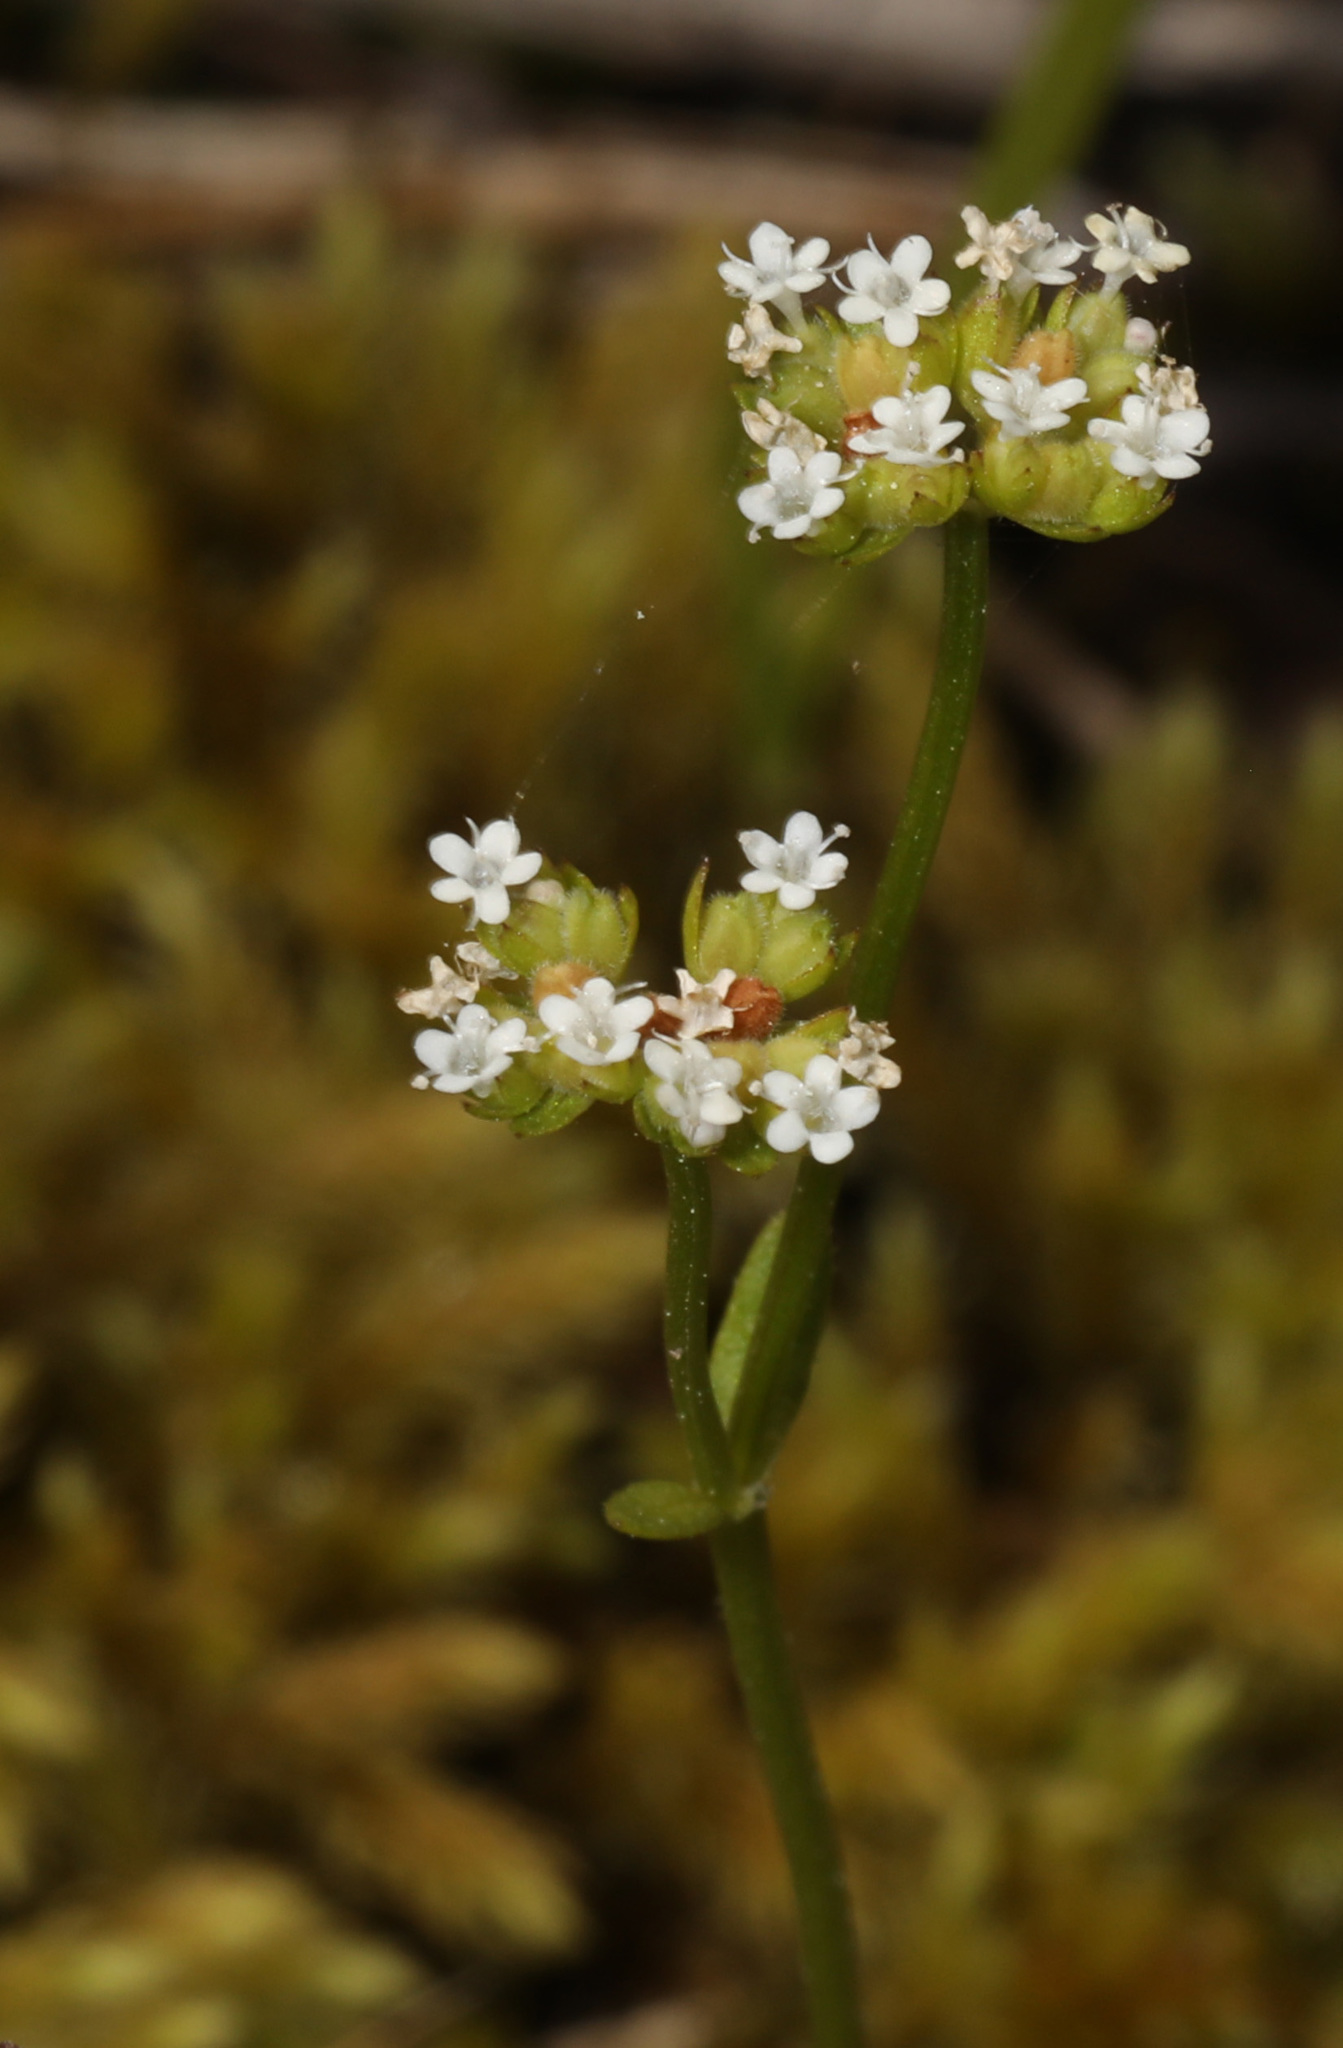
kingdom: Plantae
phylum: Tracheophyta
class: Magnoliopsida
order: Dipsacales
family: Caprifoliaceae
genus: Valerianella
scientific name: Valerianella radiata
